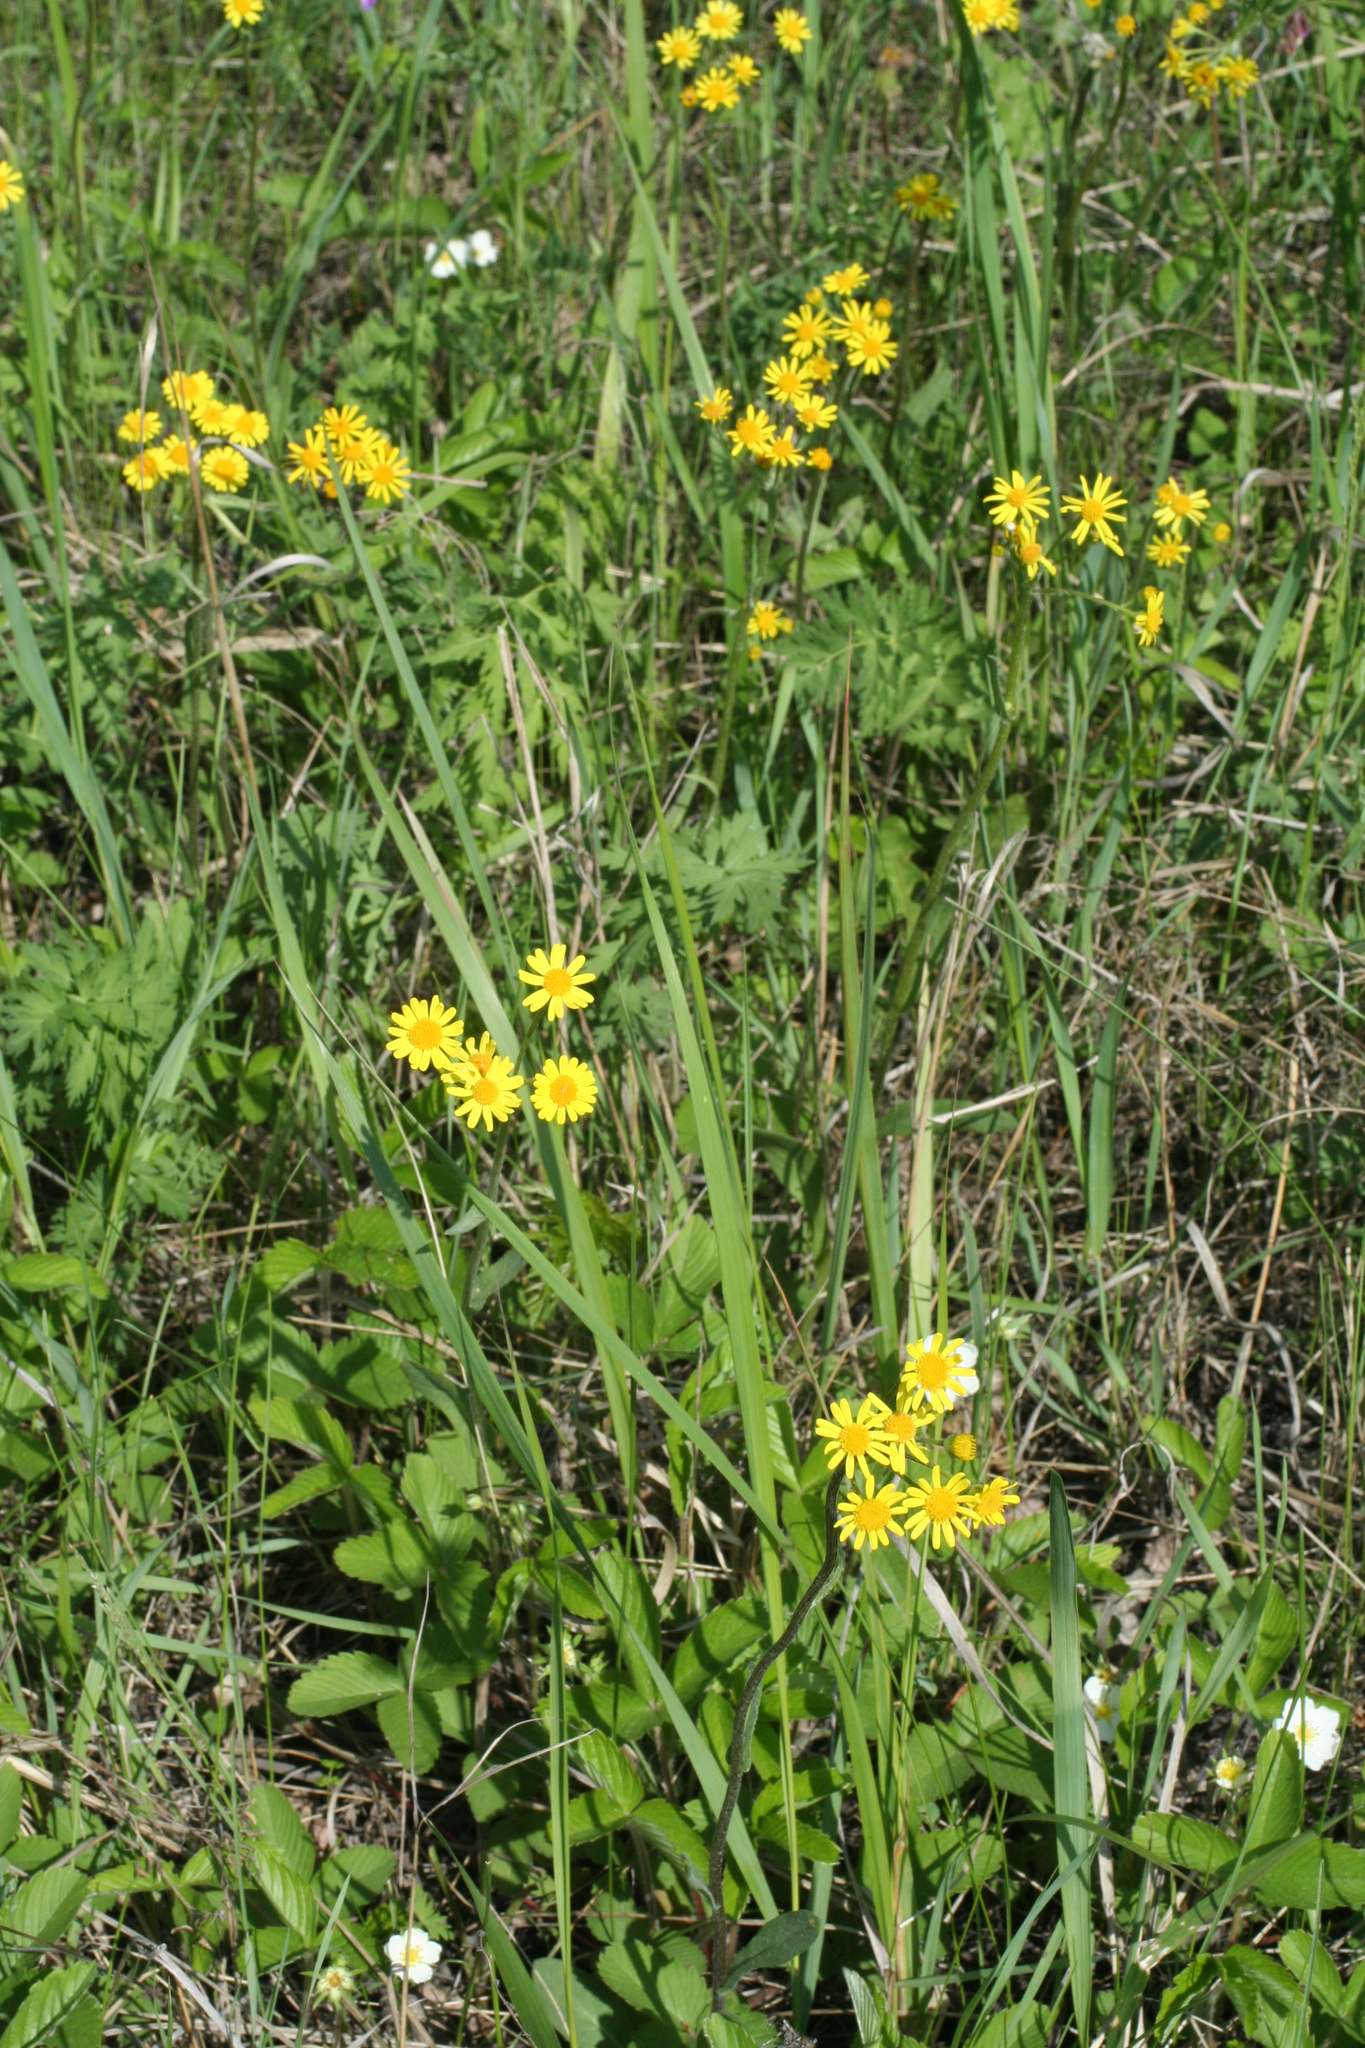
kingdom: Plantae
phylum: Tracheophyta
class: Magnoliopsida
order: Asterales
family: Asteraceae
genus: Tephroseris
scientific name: Tephroseris integrifolia
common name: Field fleawort
